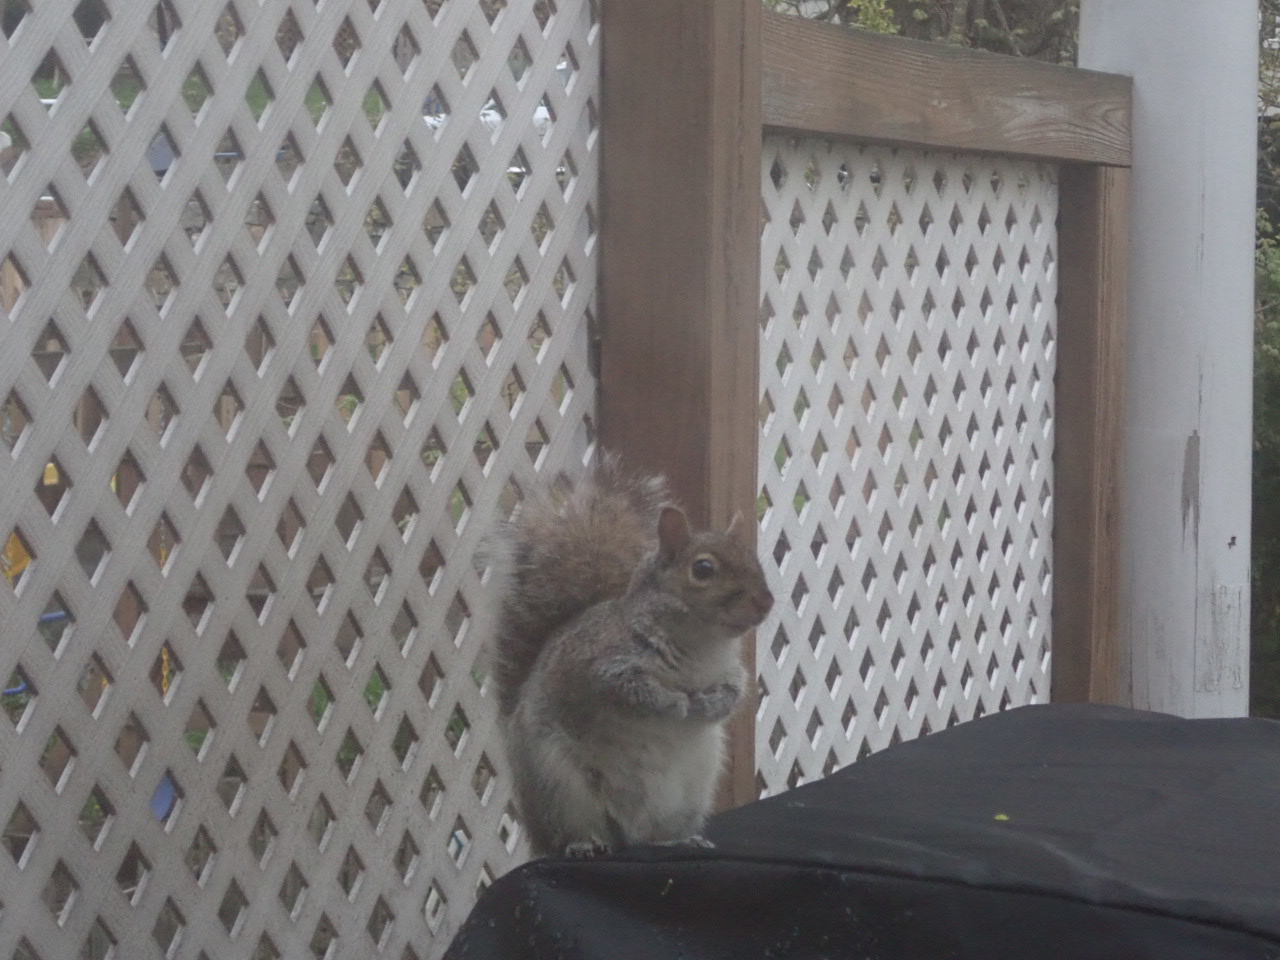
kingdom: Animalia
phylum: Chordata
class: Mammalia
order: Rodentia
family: Sciuridae
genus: Sciurus
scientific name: Sciurus carolinensis
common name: Eastern gray squirrel
